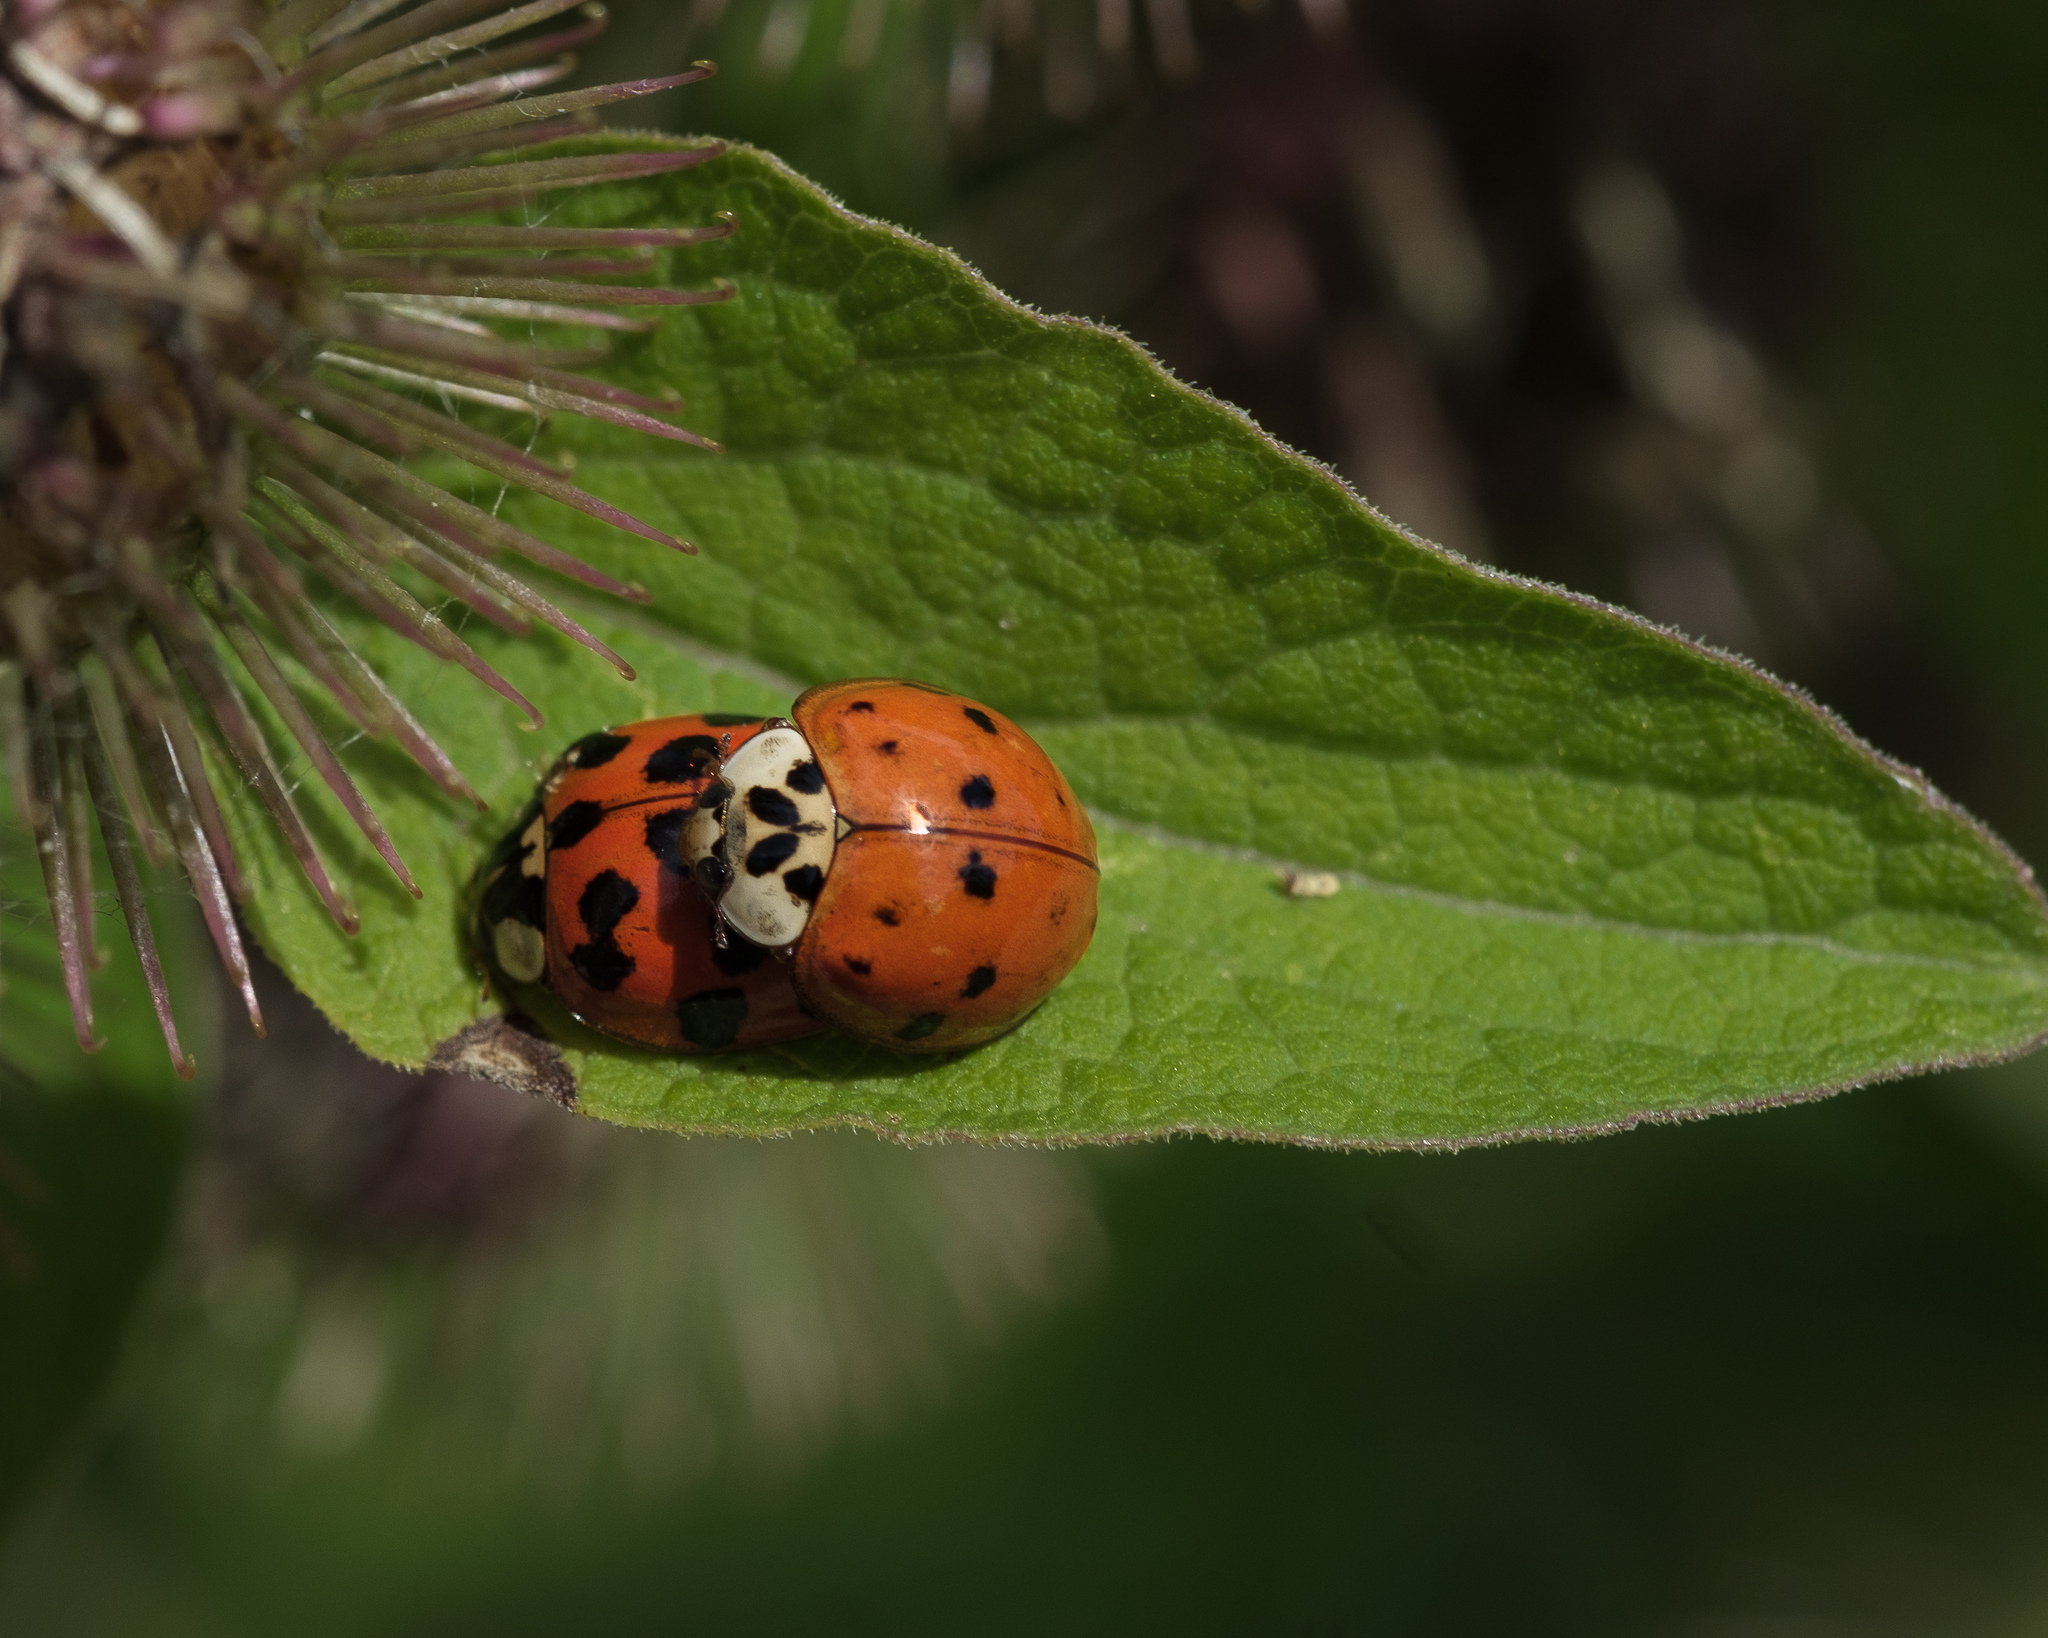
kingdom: Animalia
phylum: Arthropoda
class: Insecta
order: Coleoptera
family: Coccinellidae
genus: Harmonia
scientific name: Harmonia axyridis
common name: Harlequin ladybird
